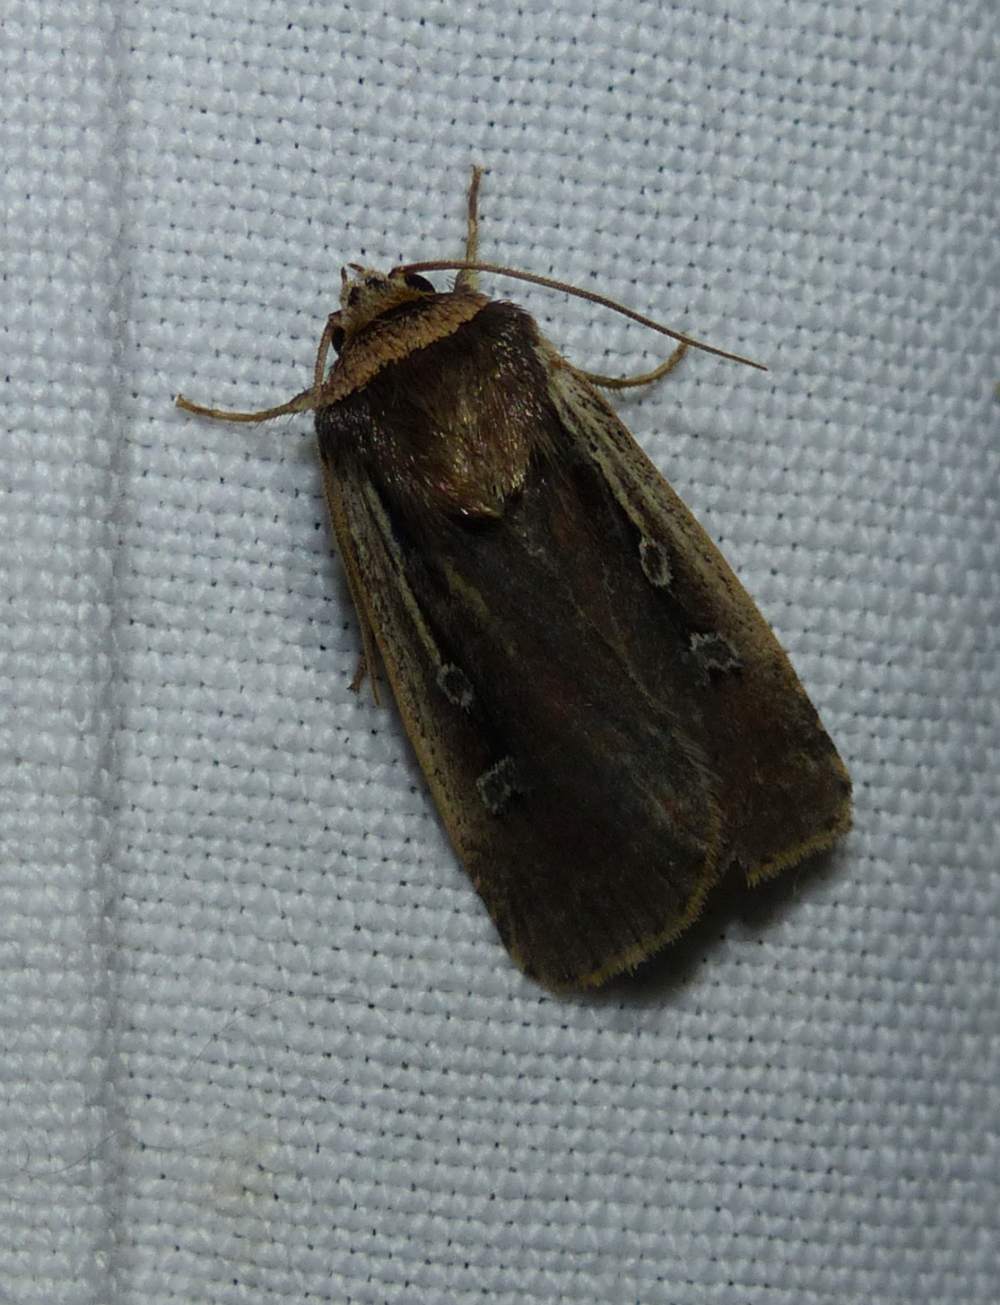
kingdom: Animalia
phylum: Arthropoda
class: Insecta
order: Lepidoptera
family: Noctuidae
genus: Ochropleura
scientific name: Ochropleura implecta
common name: Flame-shouldered dart
